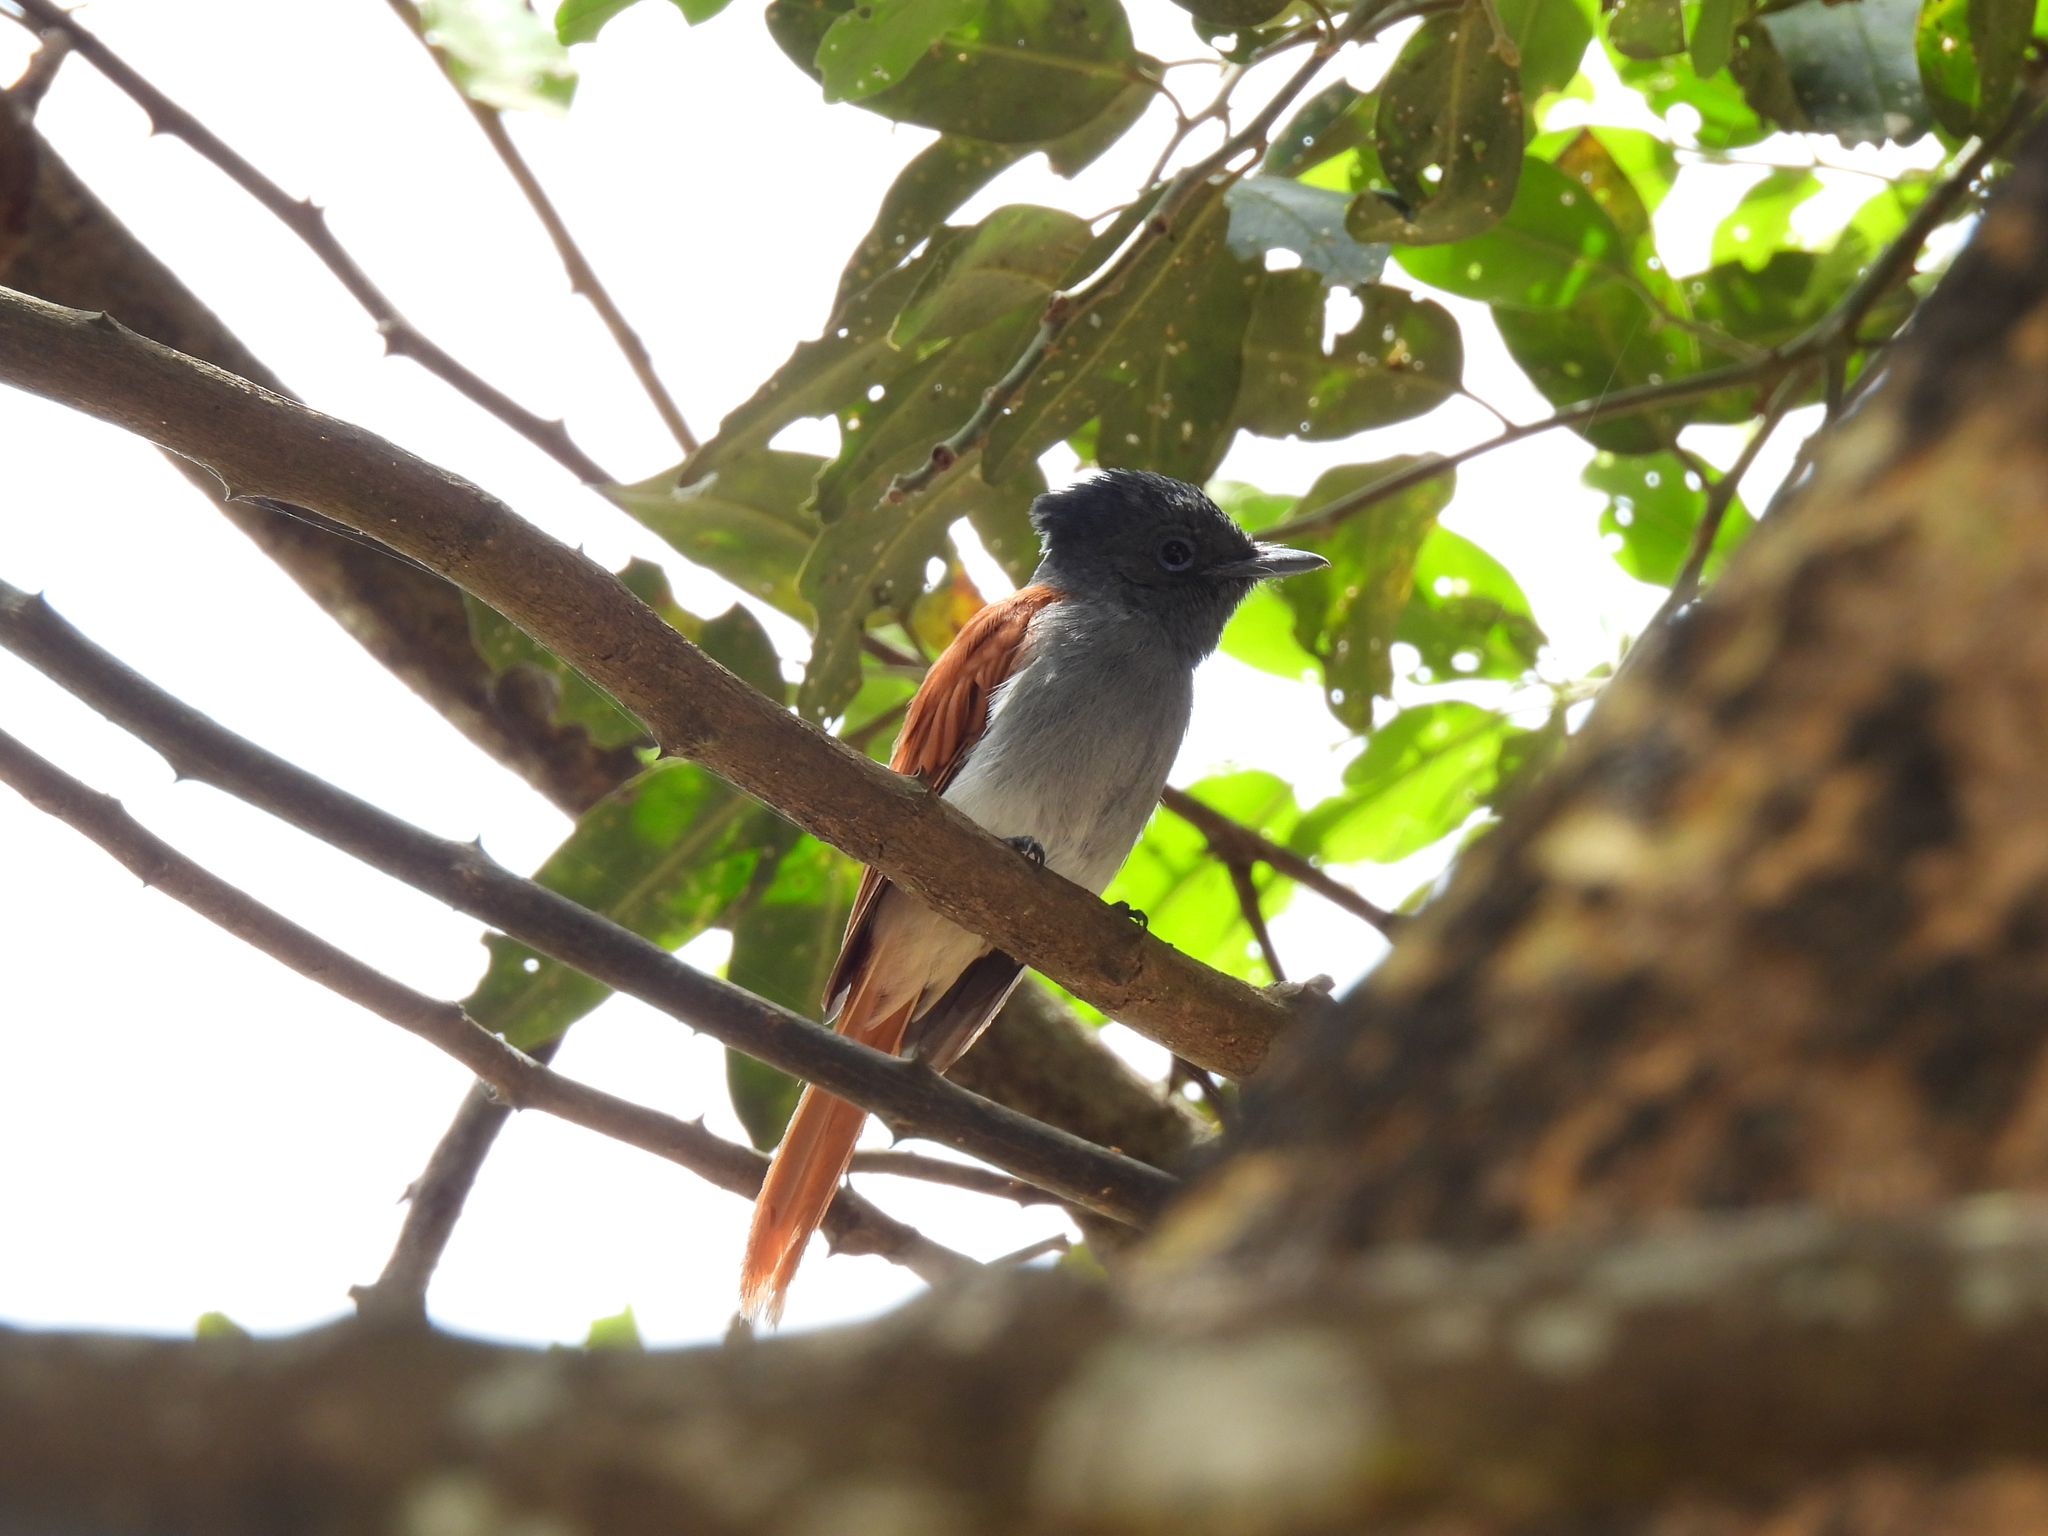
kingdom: Animalia
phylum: Chordata
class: Aves
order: Passeriformes
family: Monarchidae
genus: Terpsiphone
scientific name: Terpsiphone viridis
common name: African paradise flycatcher
